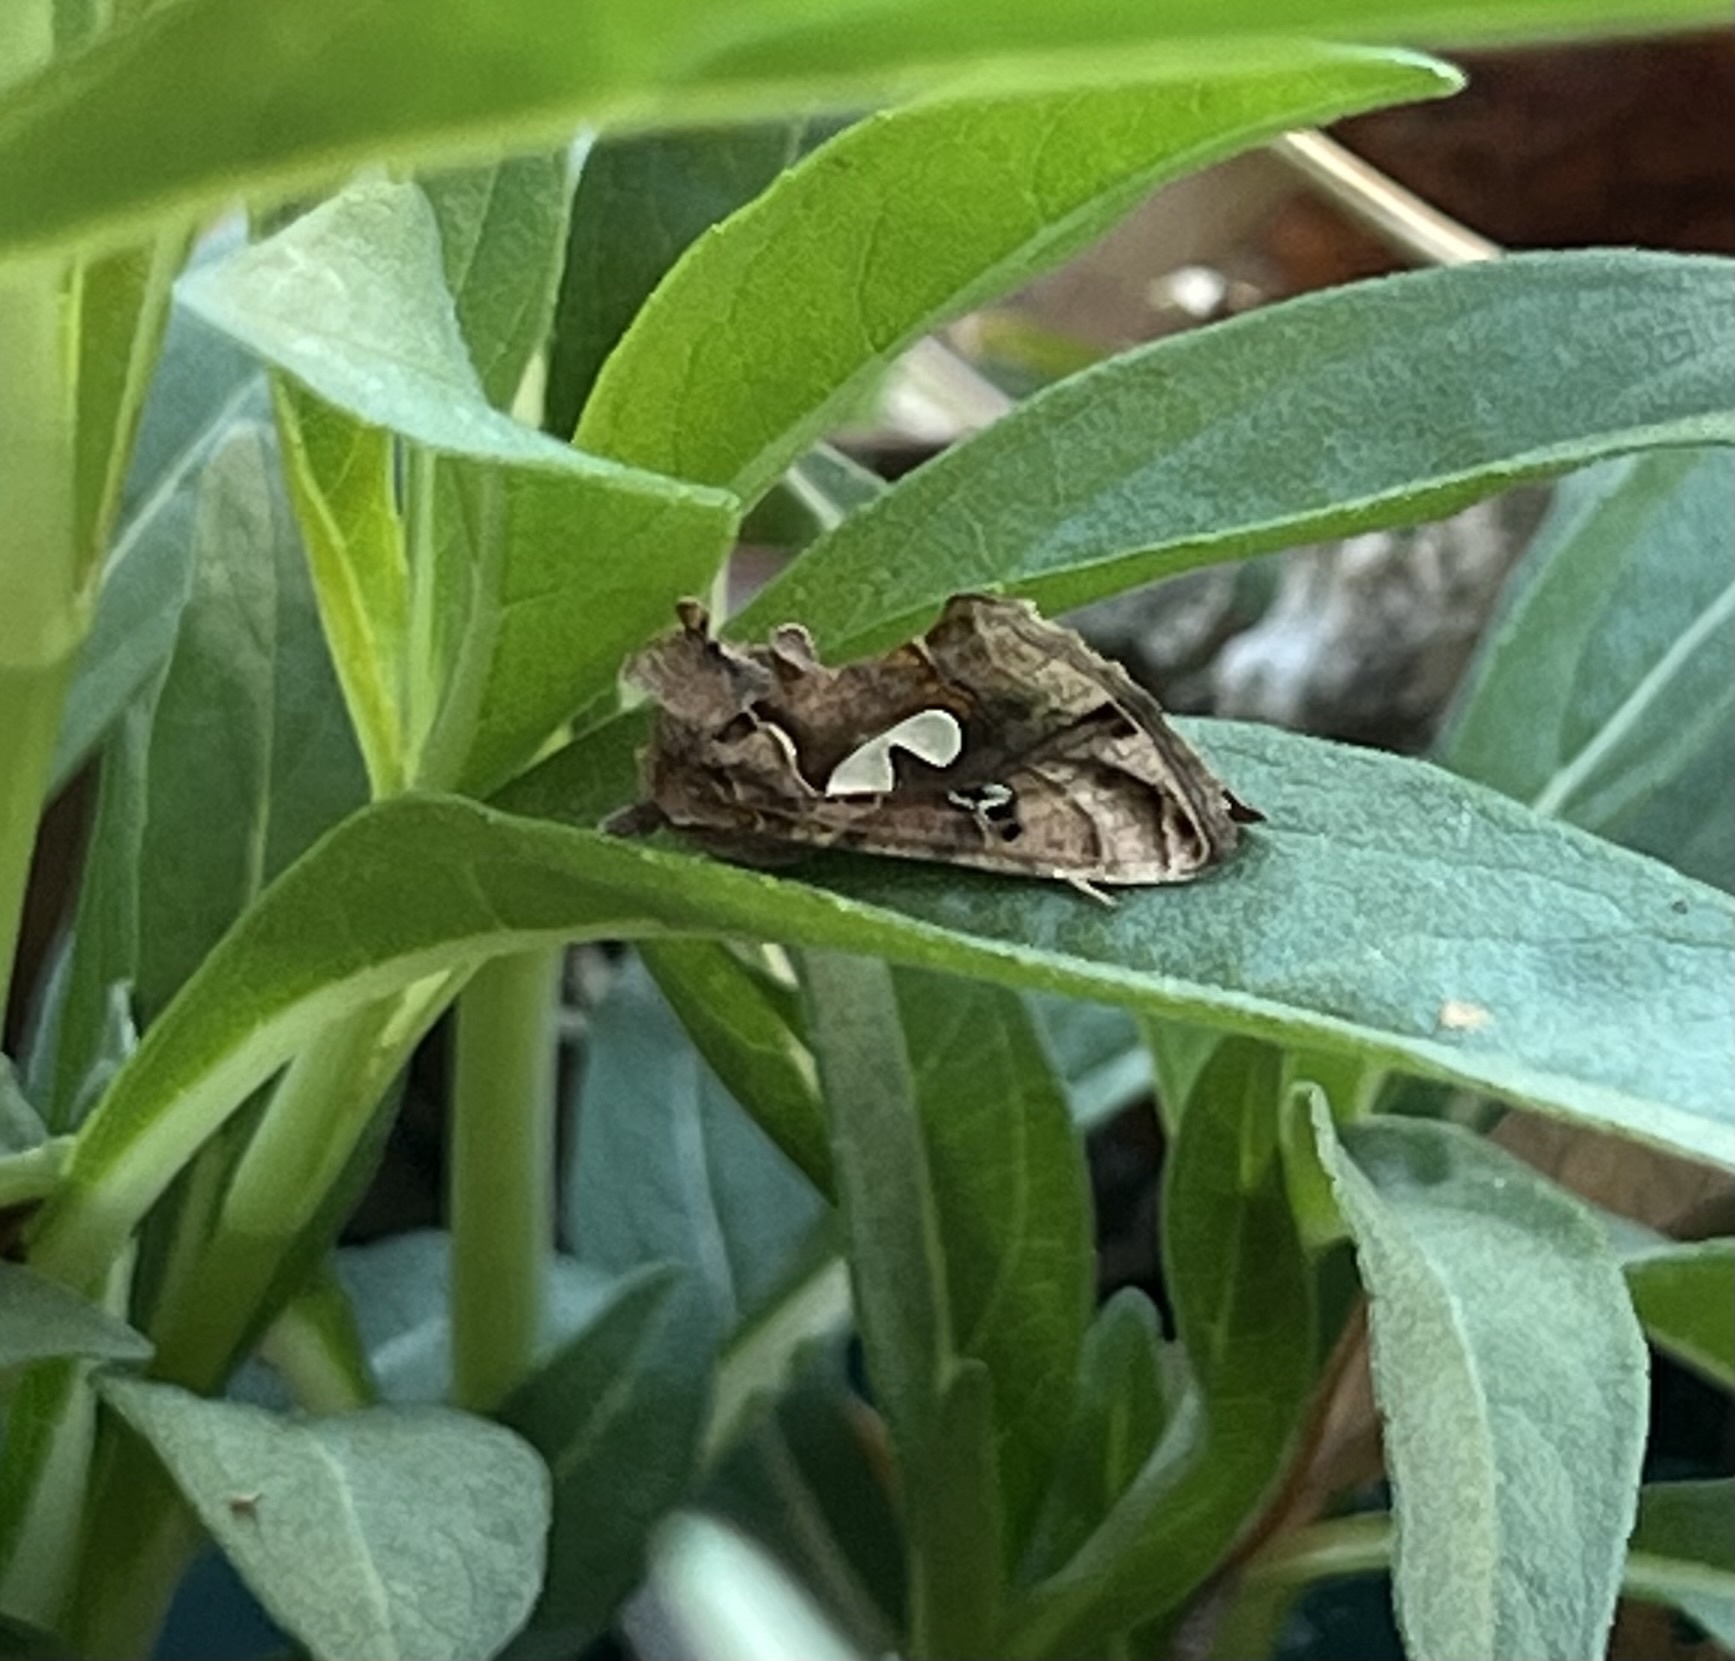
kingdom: Animalia
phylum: Arthropoda
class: Insecta
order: Lepidoptera
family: Noctuidae
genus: Megalographa
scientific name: Megalographa biloba
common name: Cutworm
